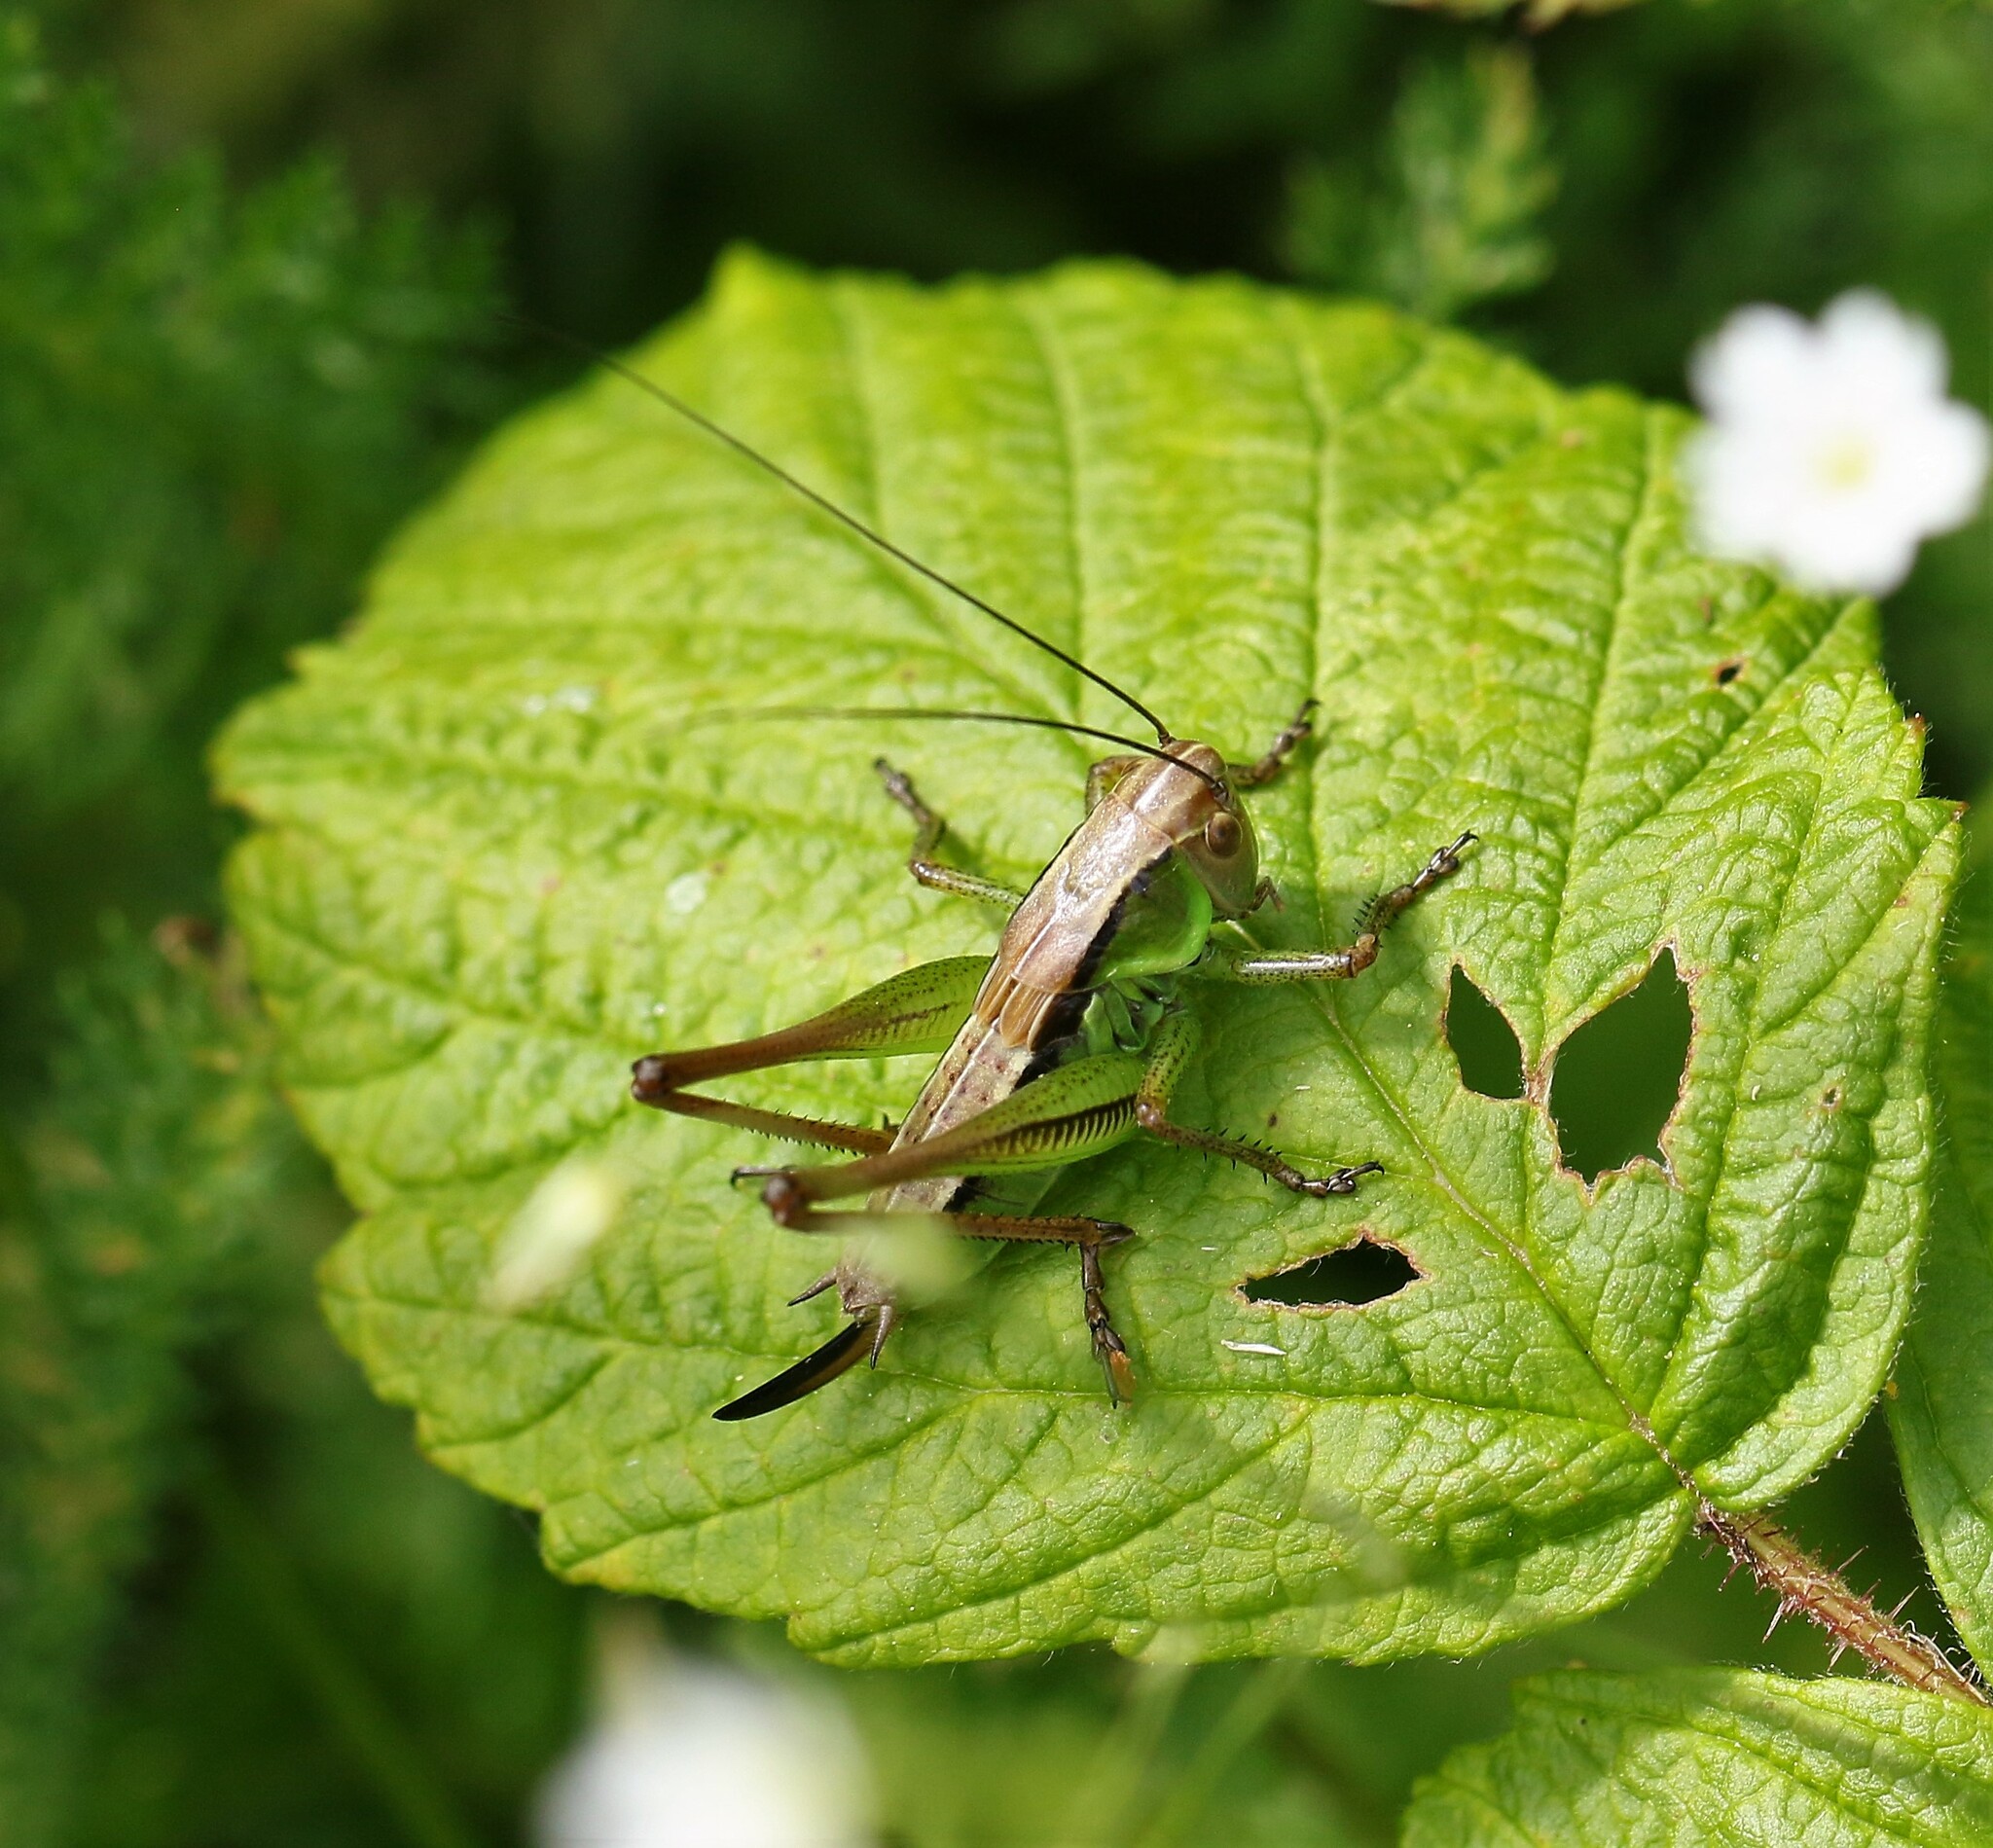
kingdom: Animalia
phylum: Arthropoda
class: Insecta
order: Orthoptera
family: Tettigoniidae
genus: Roeseliana
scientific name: Roeseliana roeselii
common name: Roesel's bush cricket
